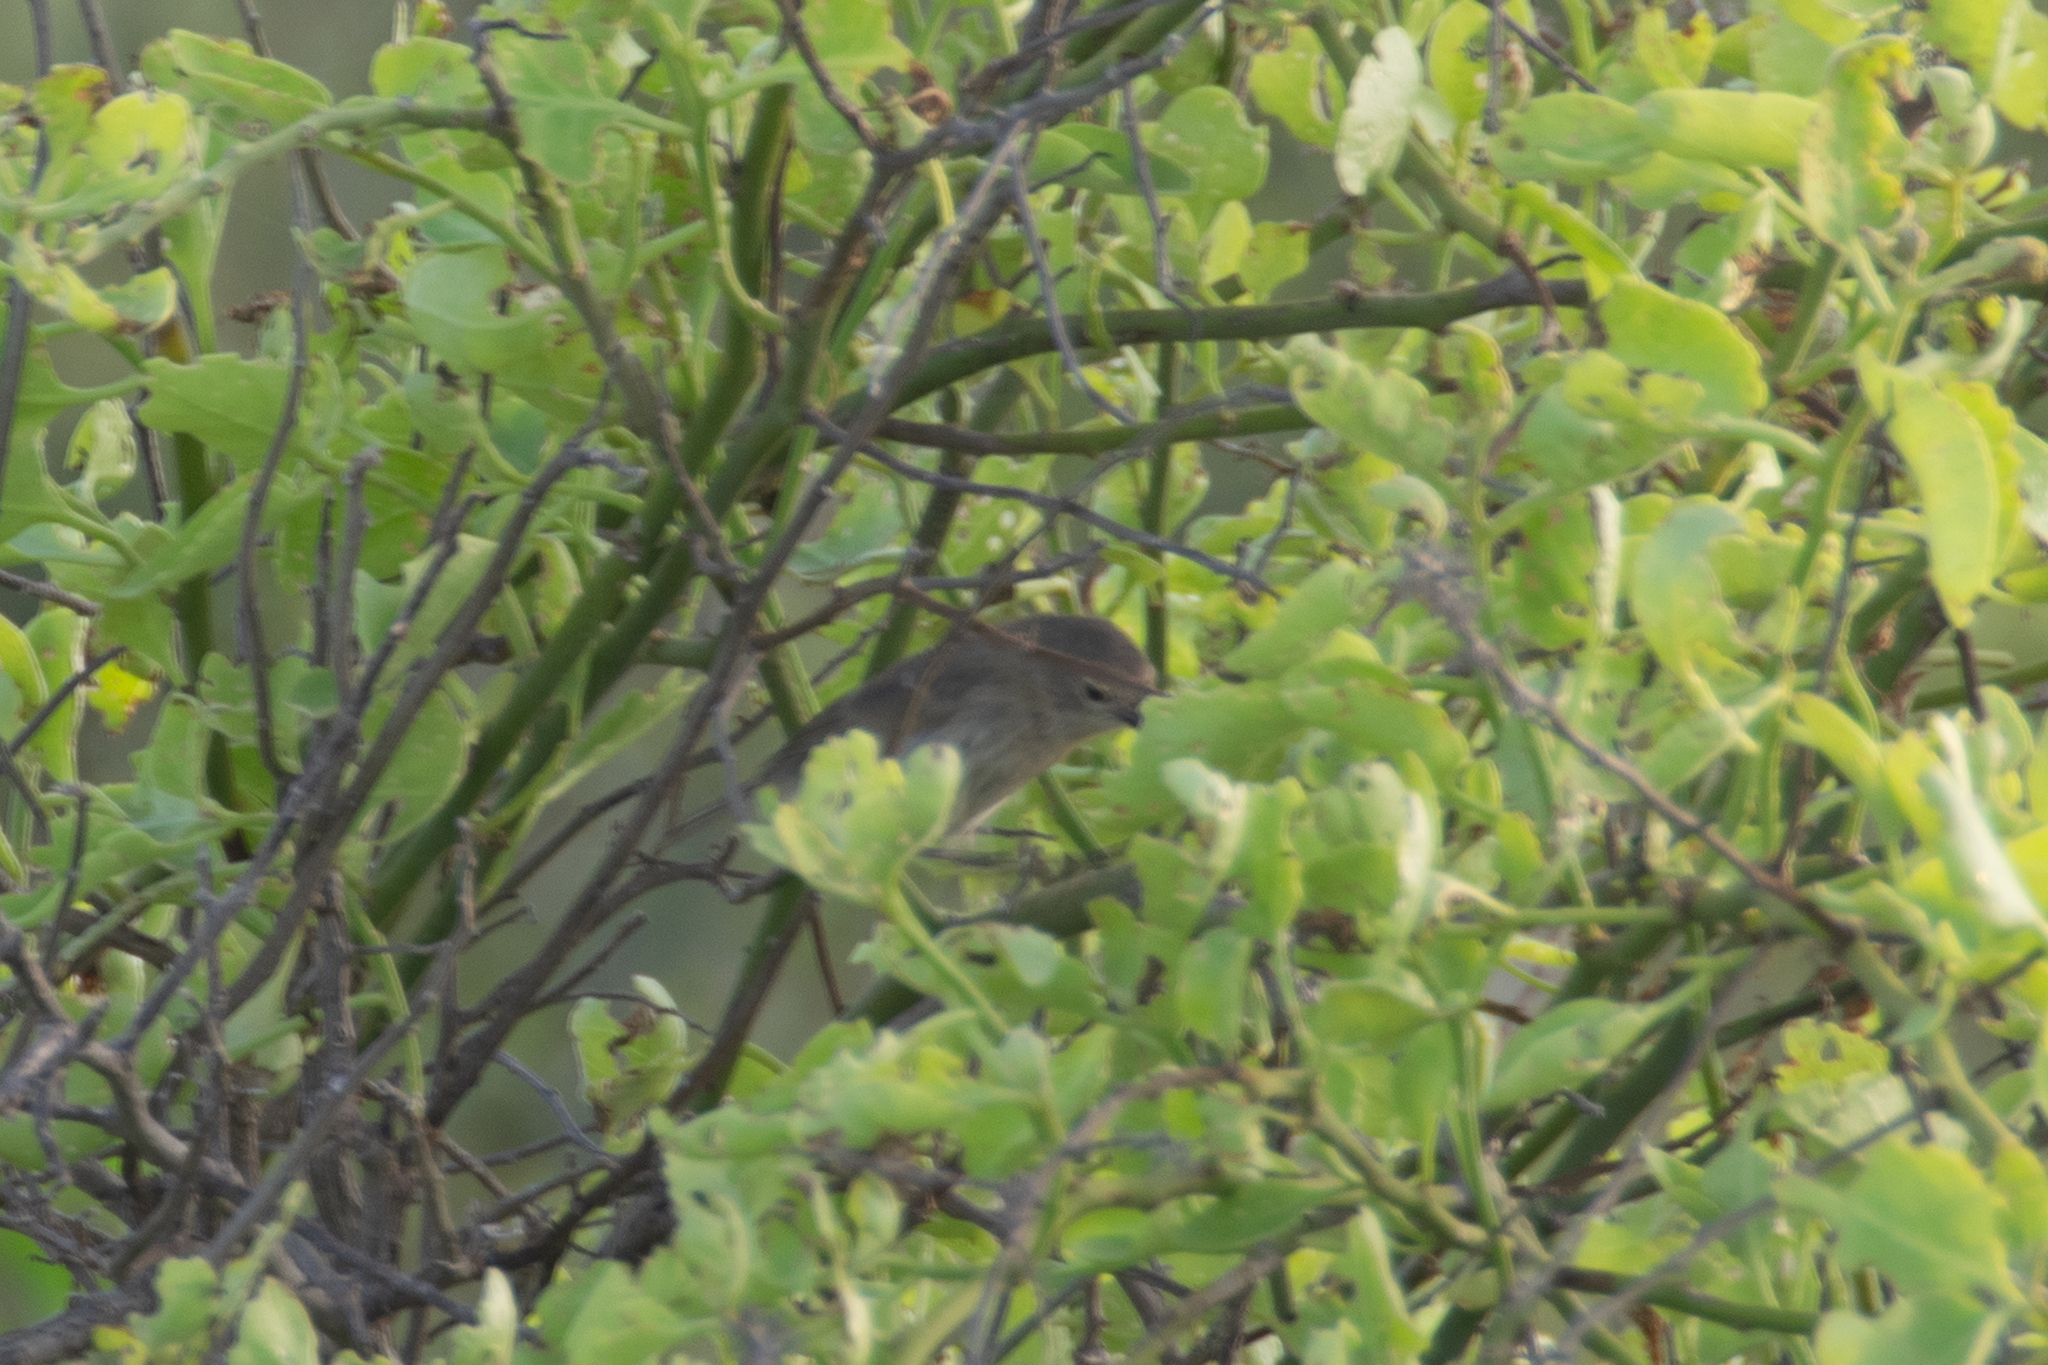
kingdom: Animalia
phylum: Chordata
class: Aves
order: Passeriformes
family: Thraupidae
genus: Certhidea
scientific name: Certhidea fusca
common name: Grey warbler-finch
